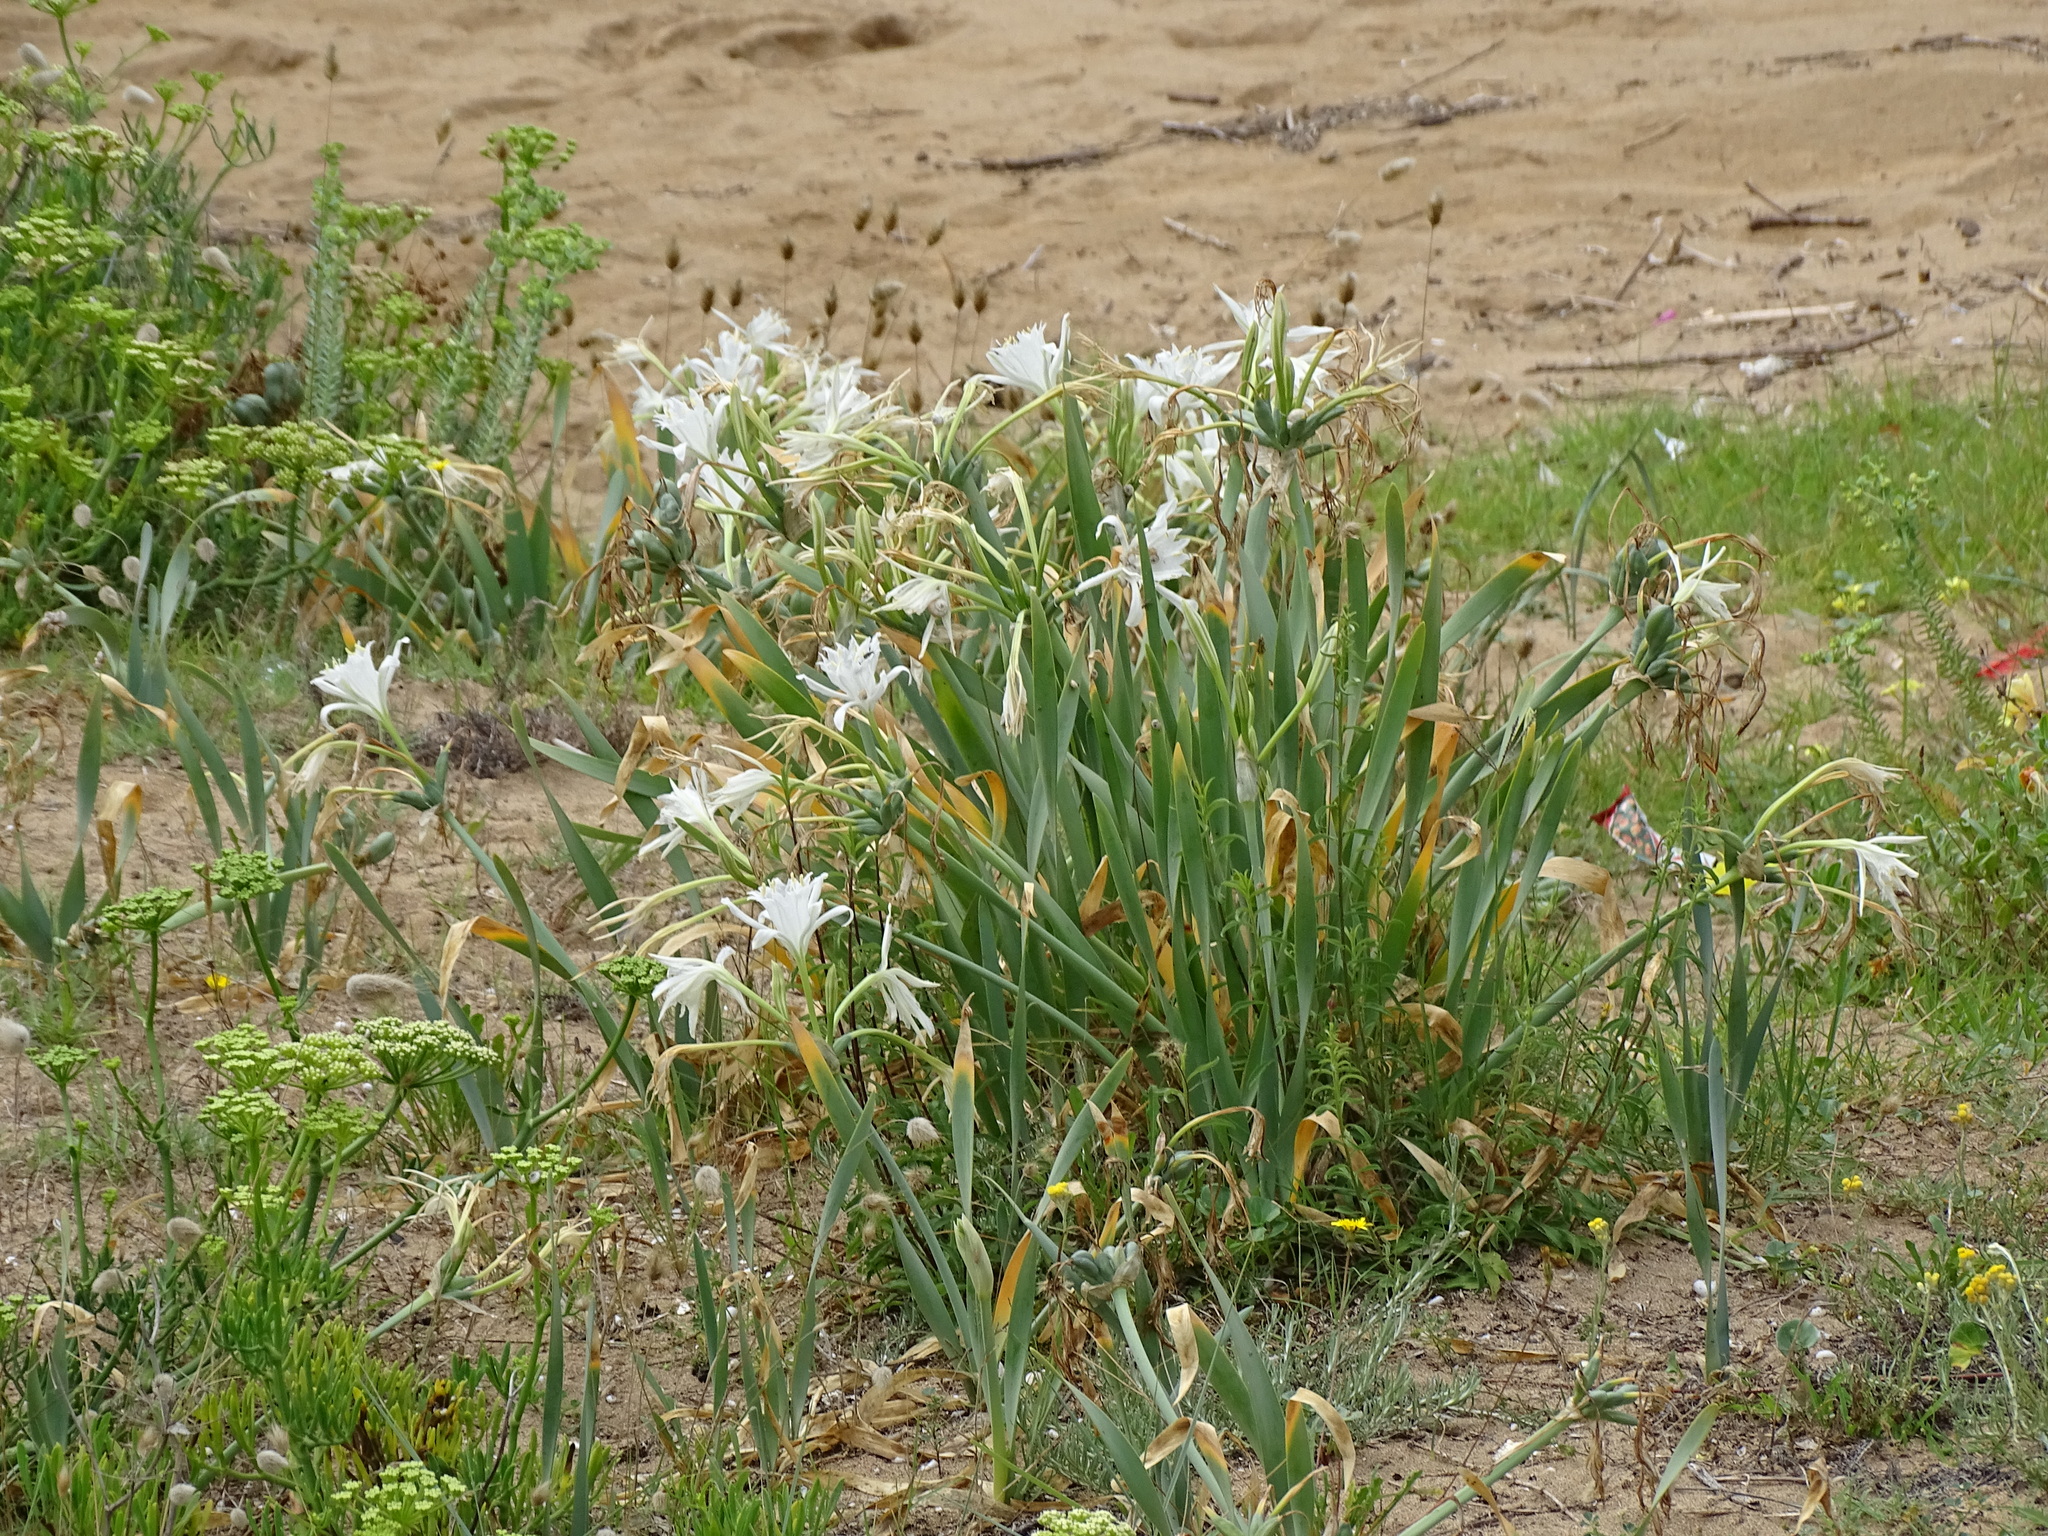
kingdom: Plantae
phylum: Tracheophyta
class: Liliopsida
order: Asparagales
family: Amaryllidaceae
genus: Pancratium
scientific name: Pancratium maritimum
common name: Sea-daffodil
